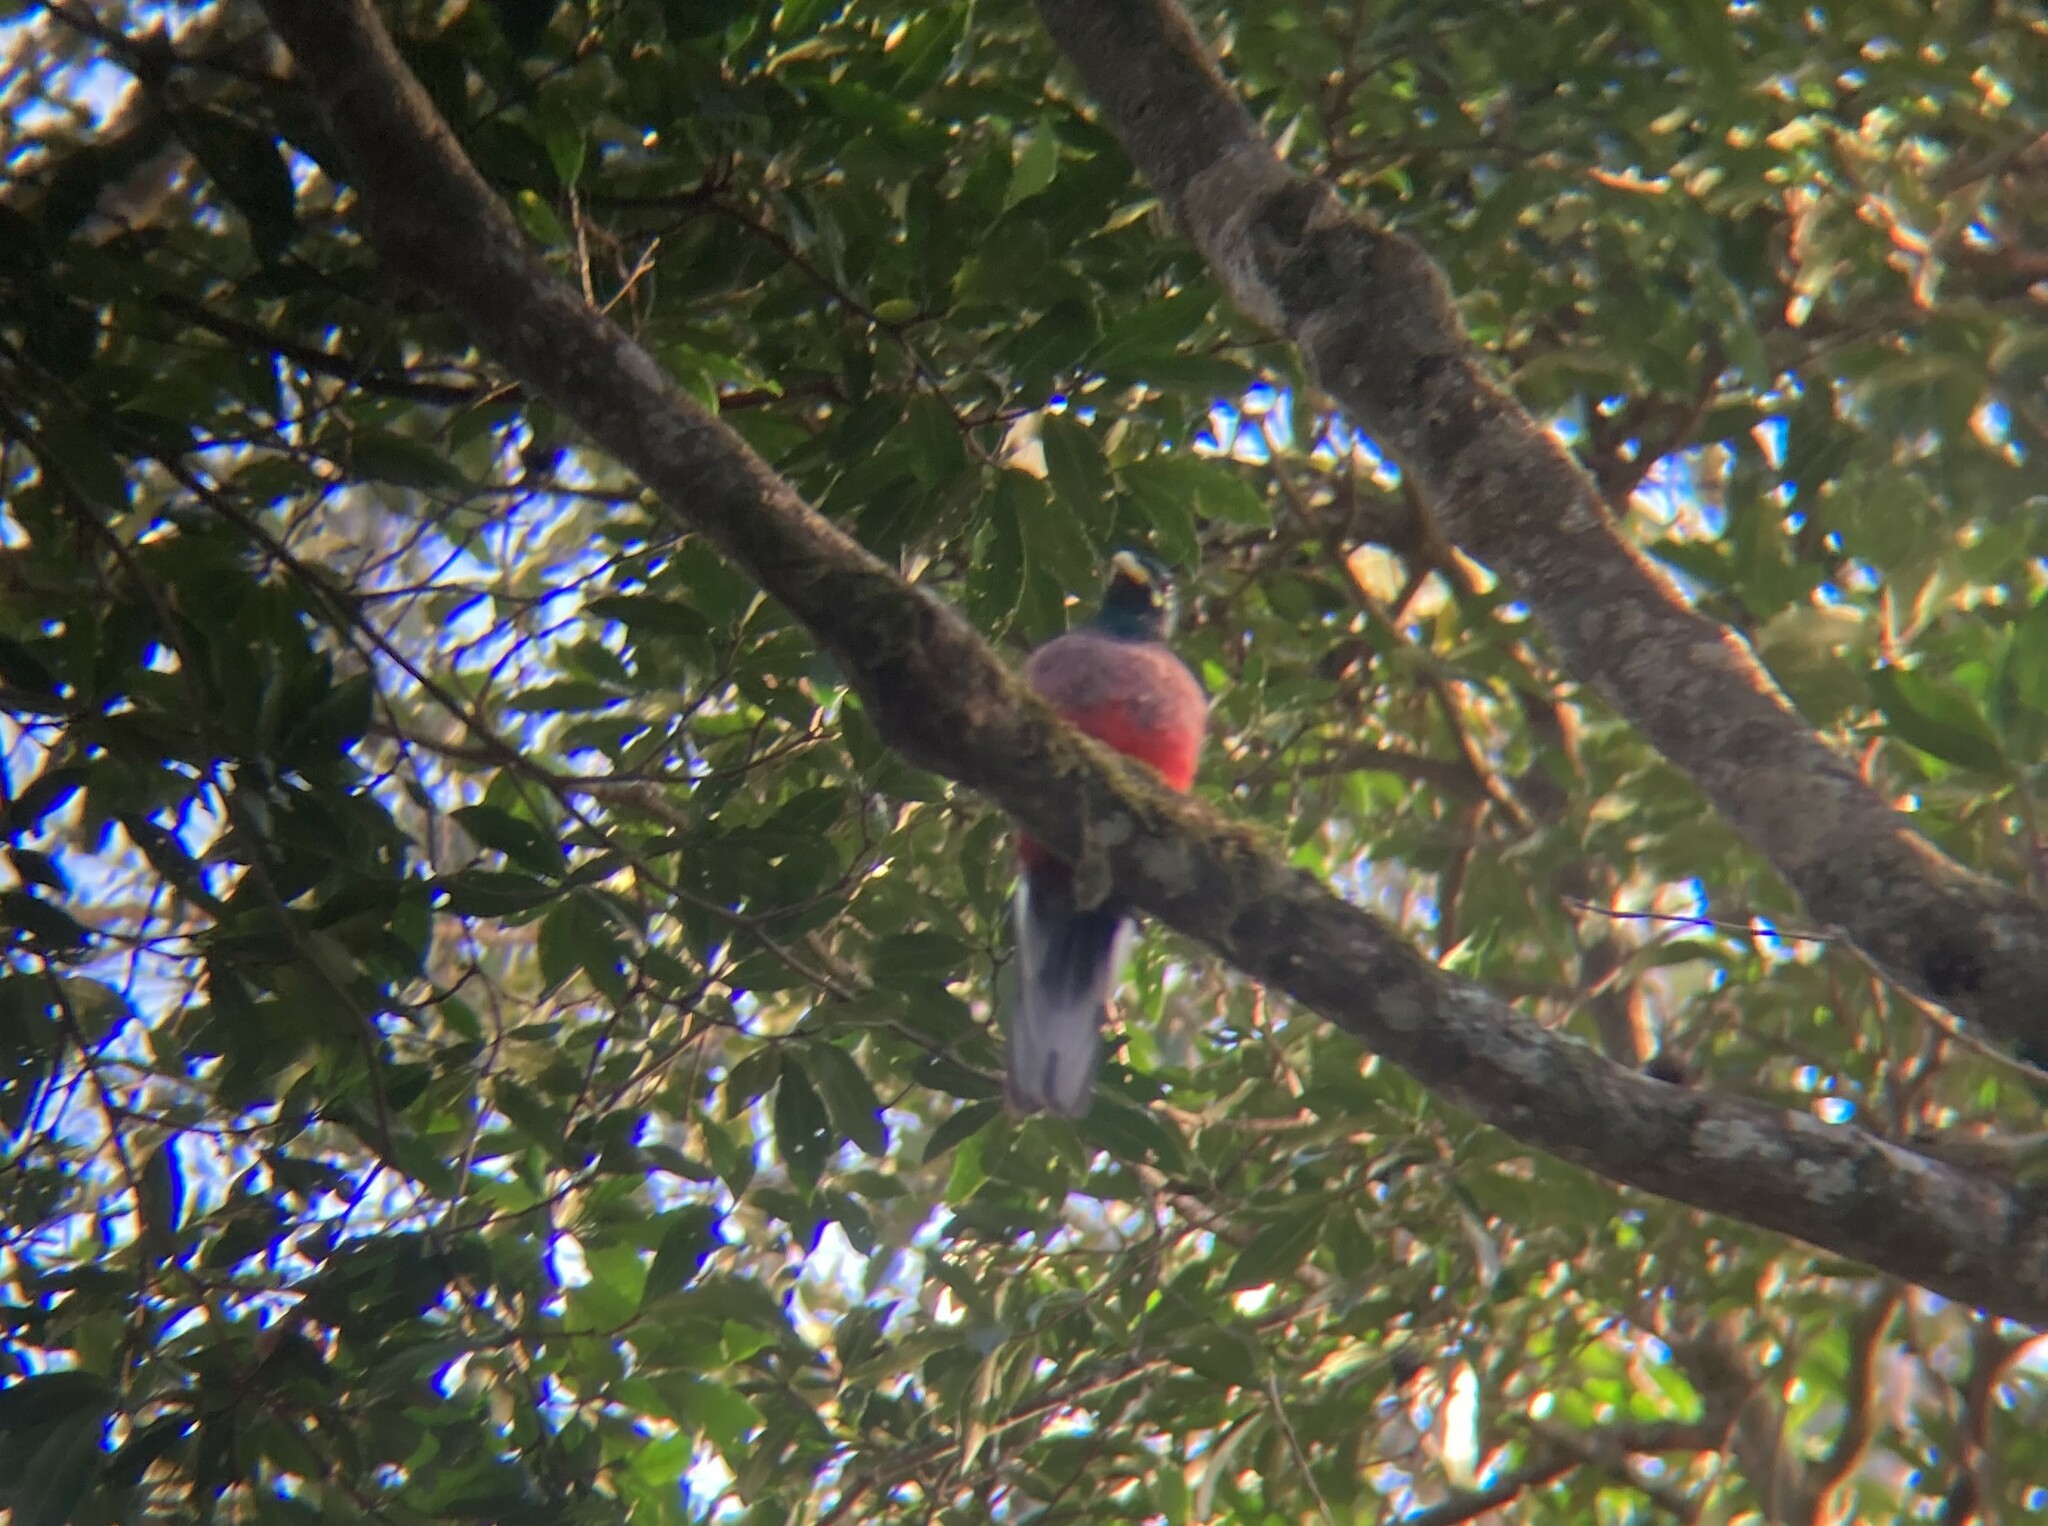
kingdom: Animalia
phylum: Chordata
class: Aves
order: Trogoniformes
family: Trogonidae
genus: Apaloderma
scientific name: Apaloderma narina
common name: Narina trogon
